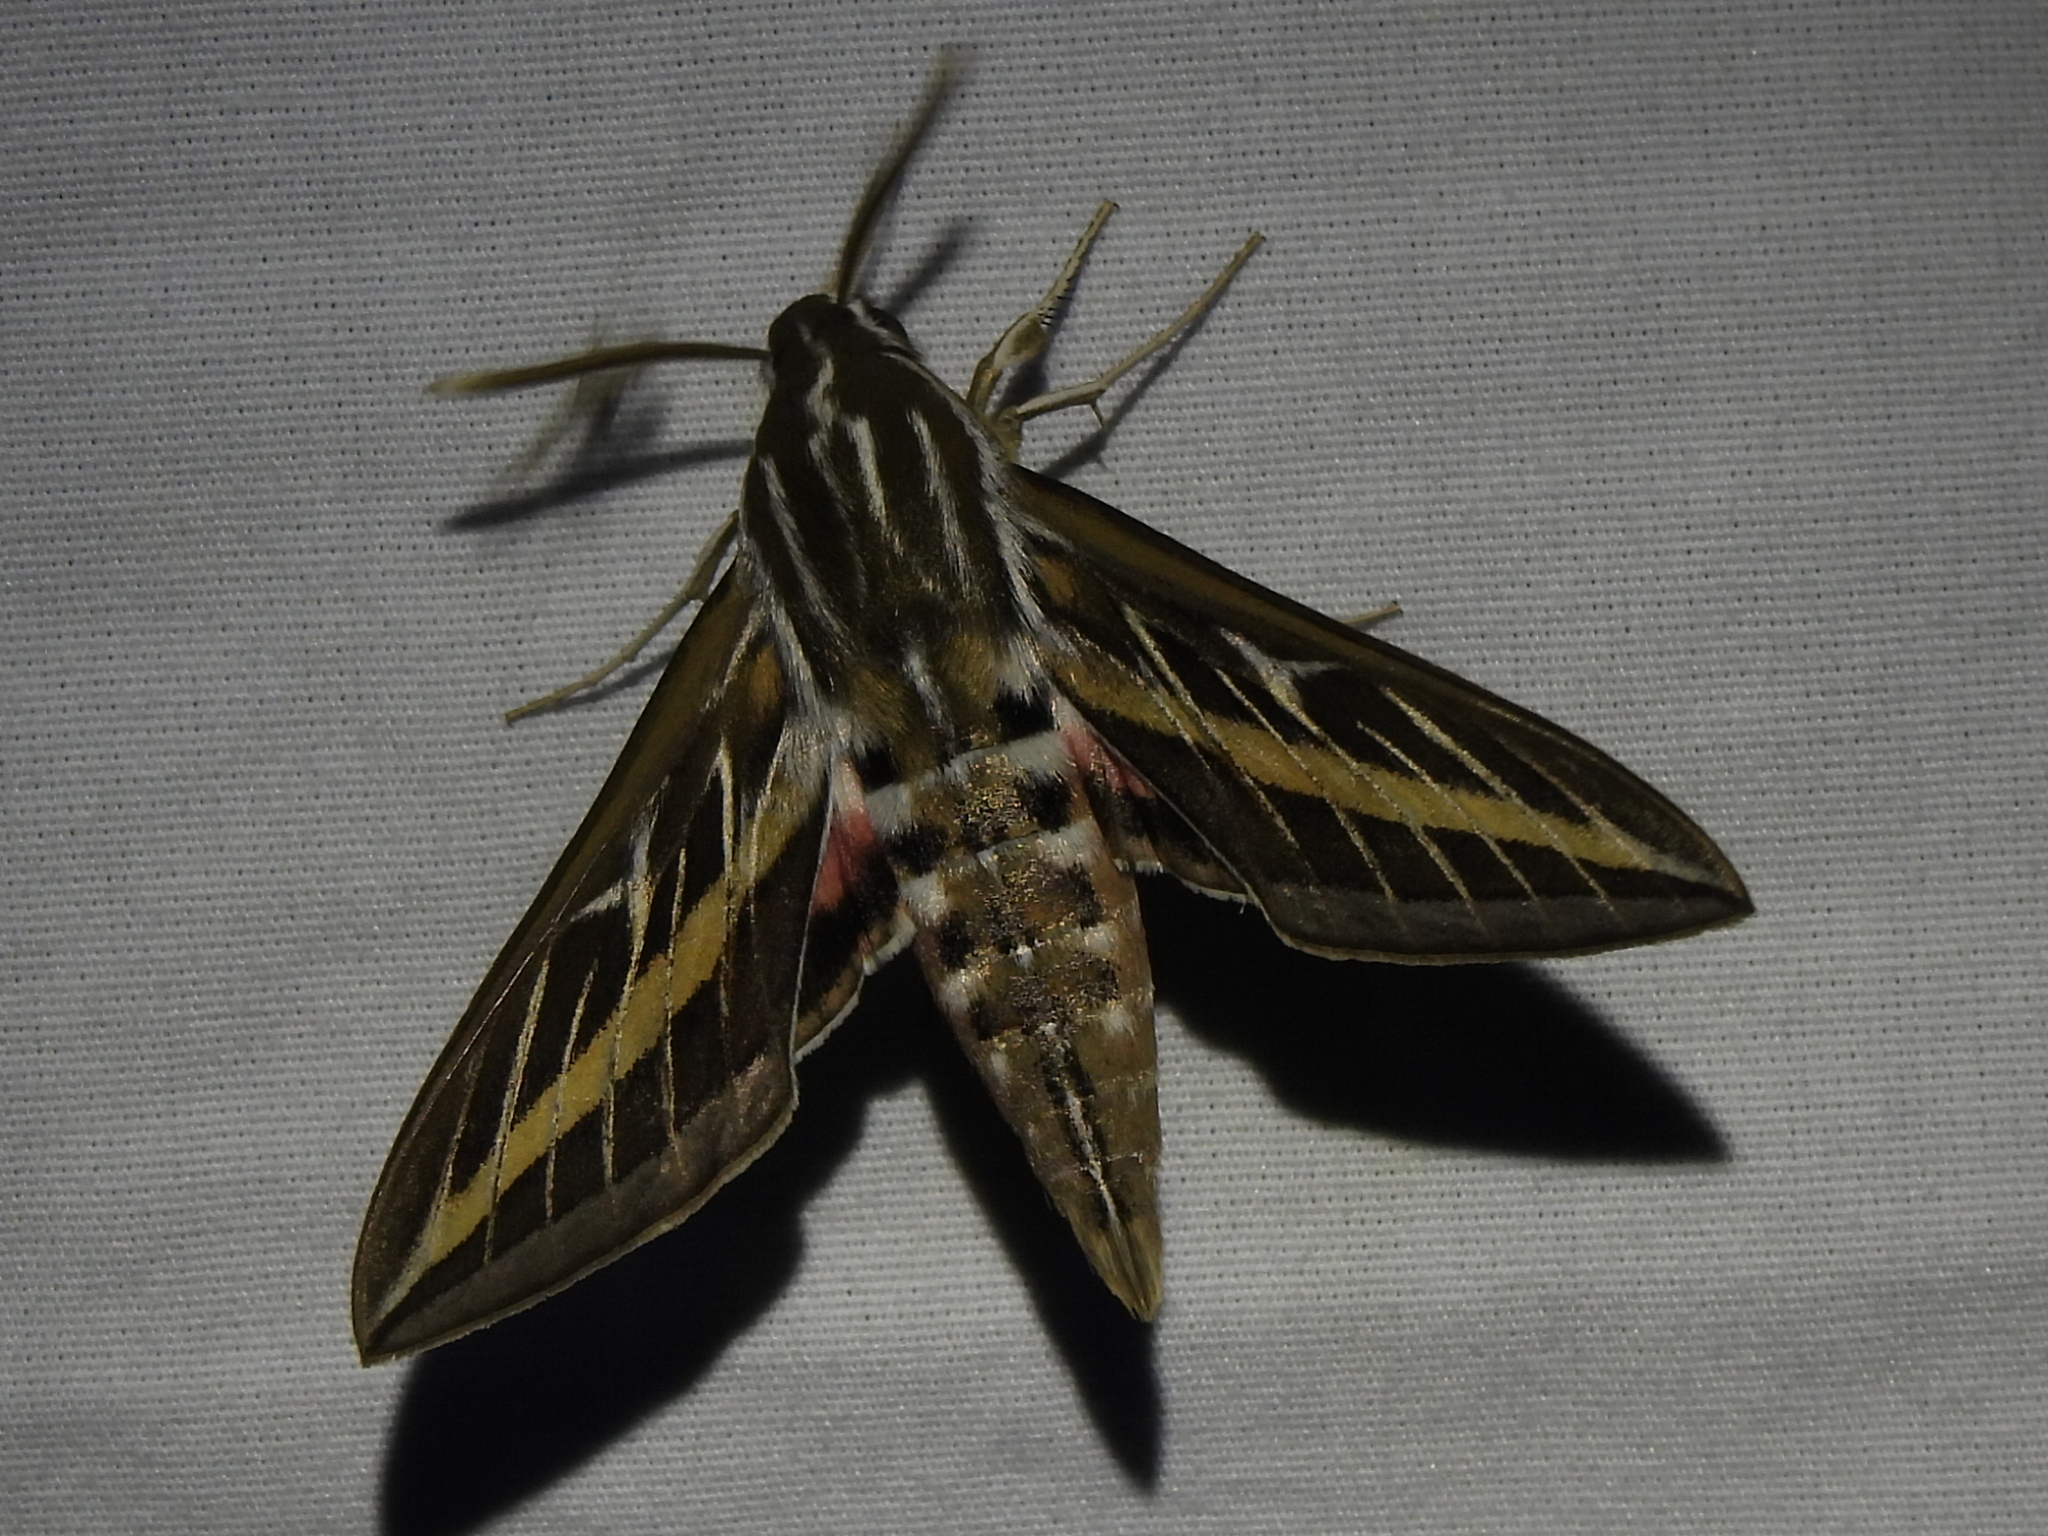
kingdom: Animalia
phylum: Arthropoda
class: Insecta
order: Lepidoptera
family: Sphingidae
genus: Hyles
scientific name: Hyles lineata
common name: White-lined sphinx
